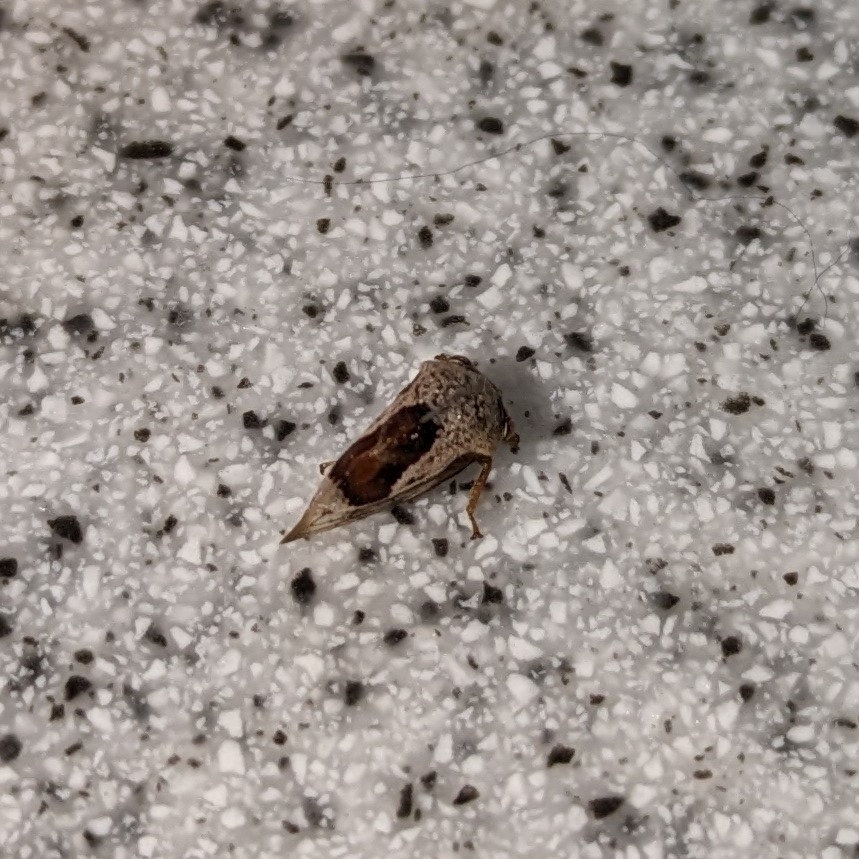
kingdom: Animalia
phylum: Arthropoda
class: Insecta
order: Hemiptera
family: Membracidae
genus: Xantholobus
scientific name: Xantholobus mutica
